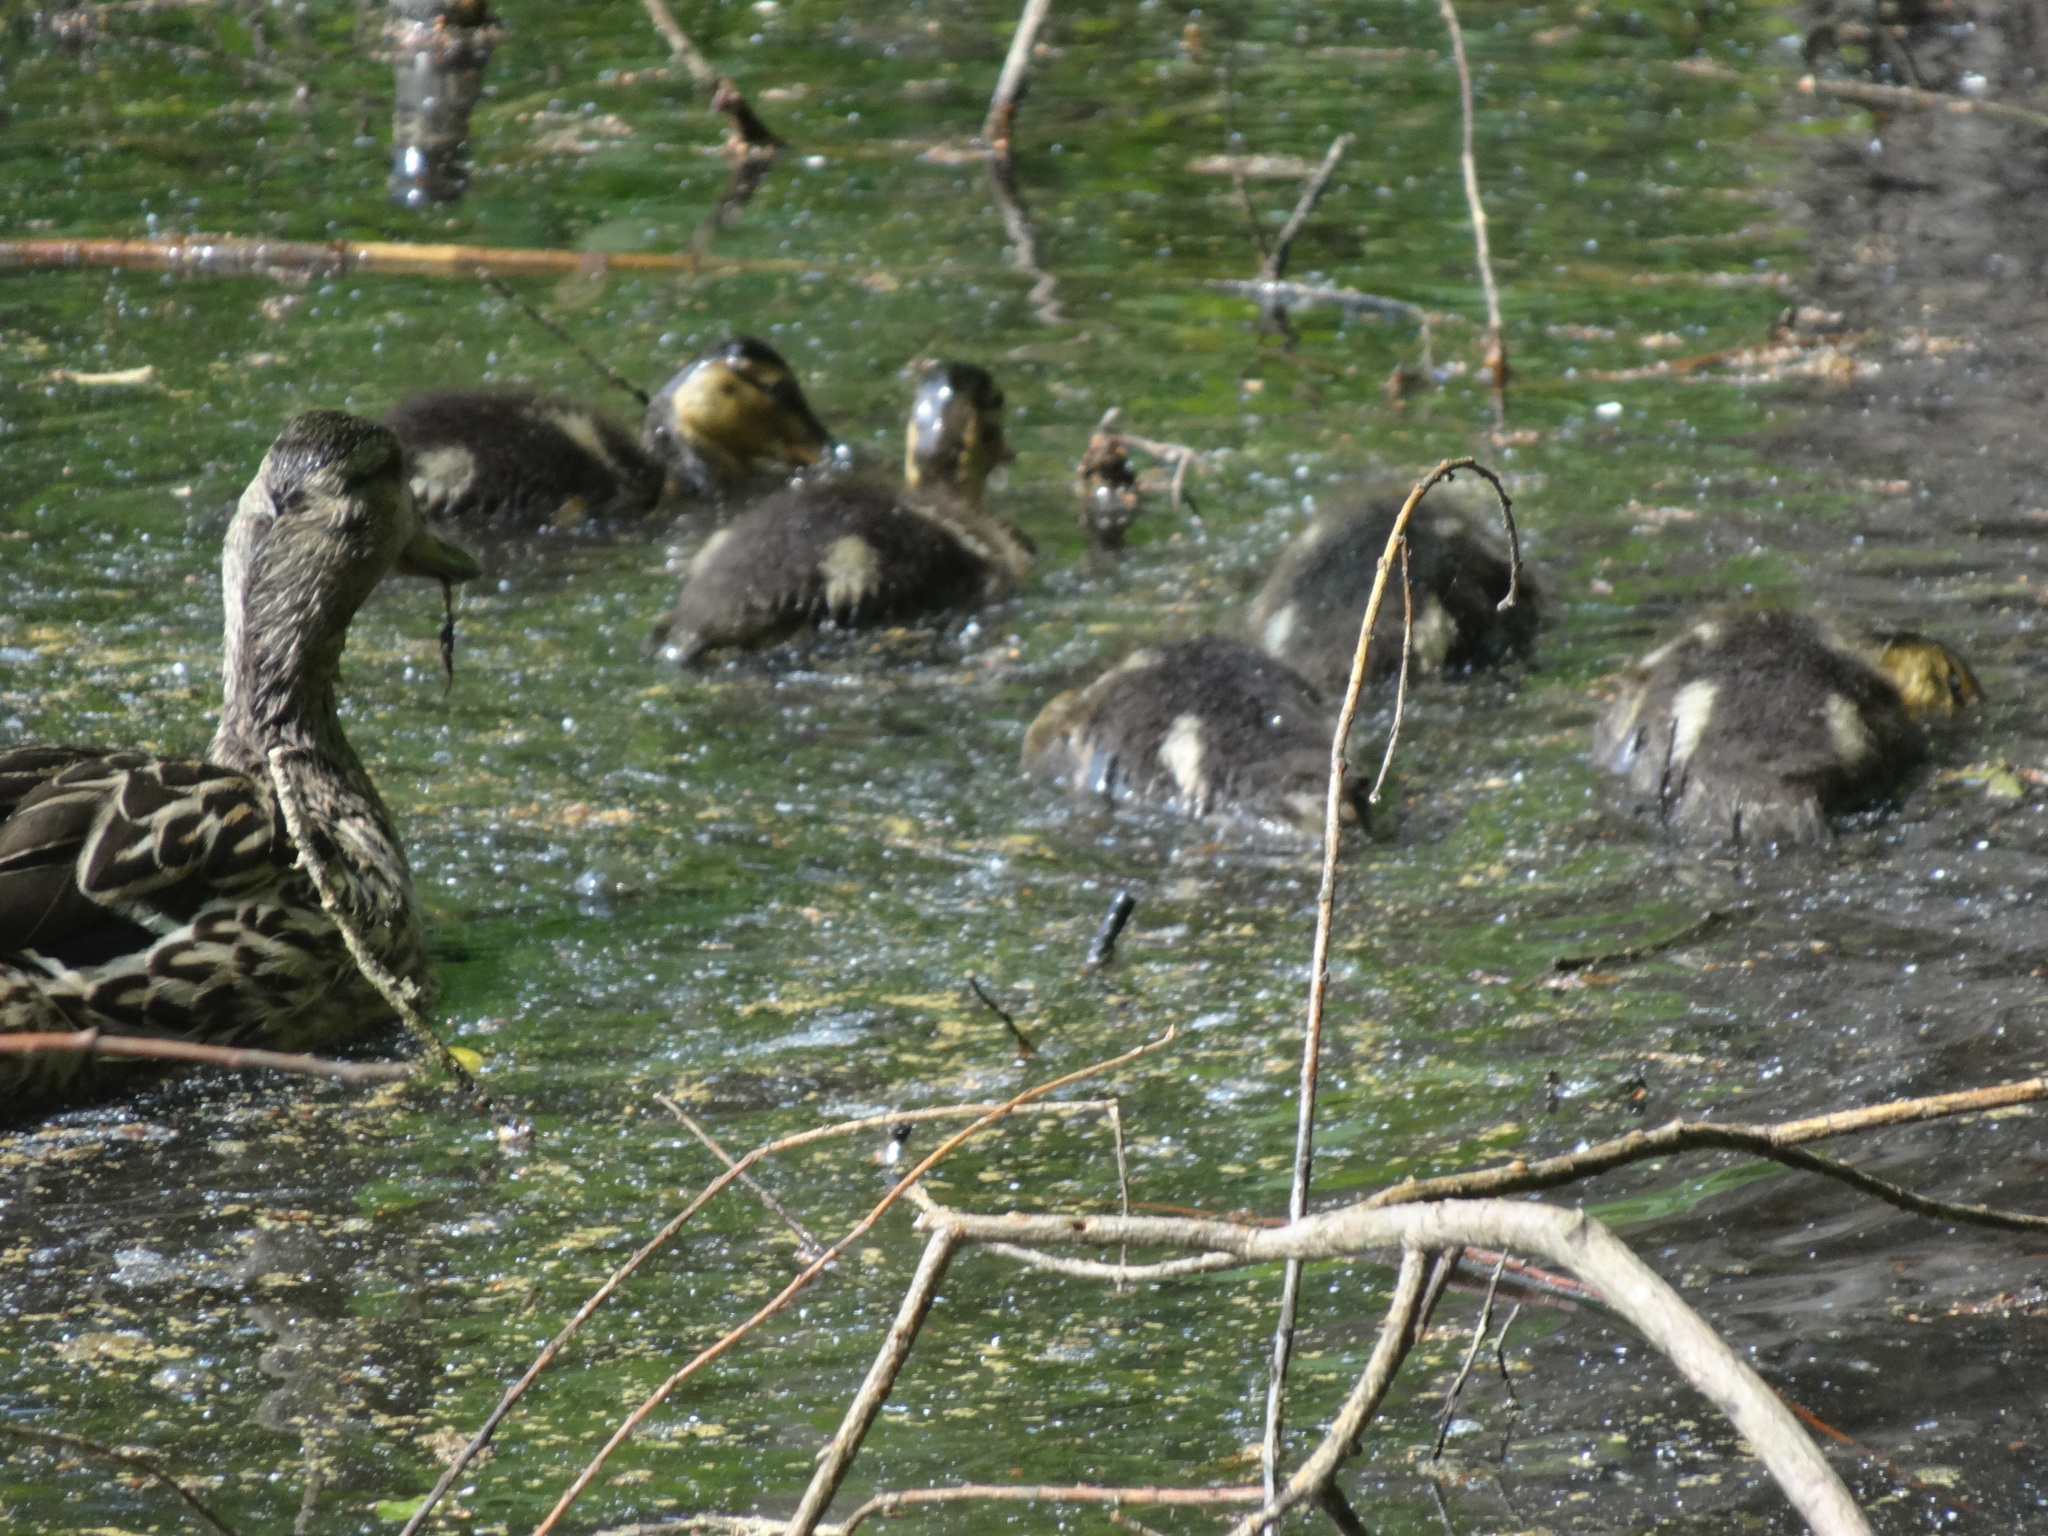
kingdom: Animalia
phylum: Chordata
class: Aves
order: Anseriformes
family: Anatidae
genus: Anas
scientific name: Anas platyrhynchos
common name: Mallard
